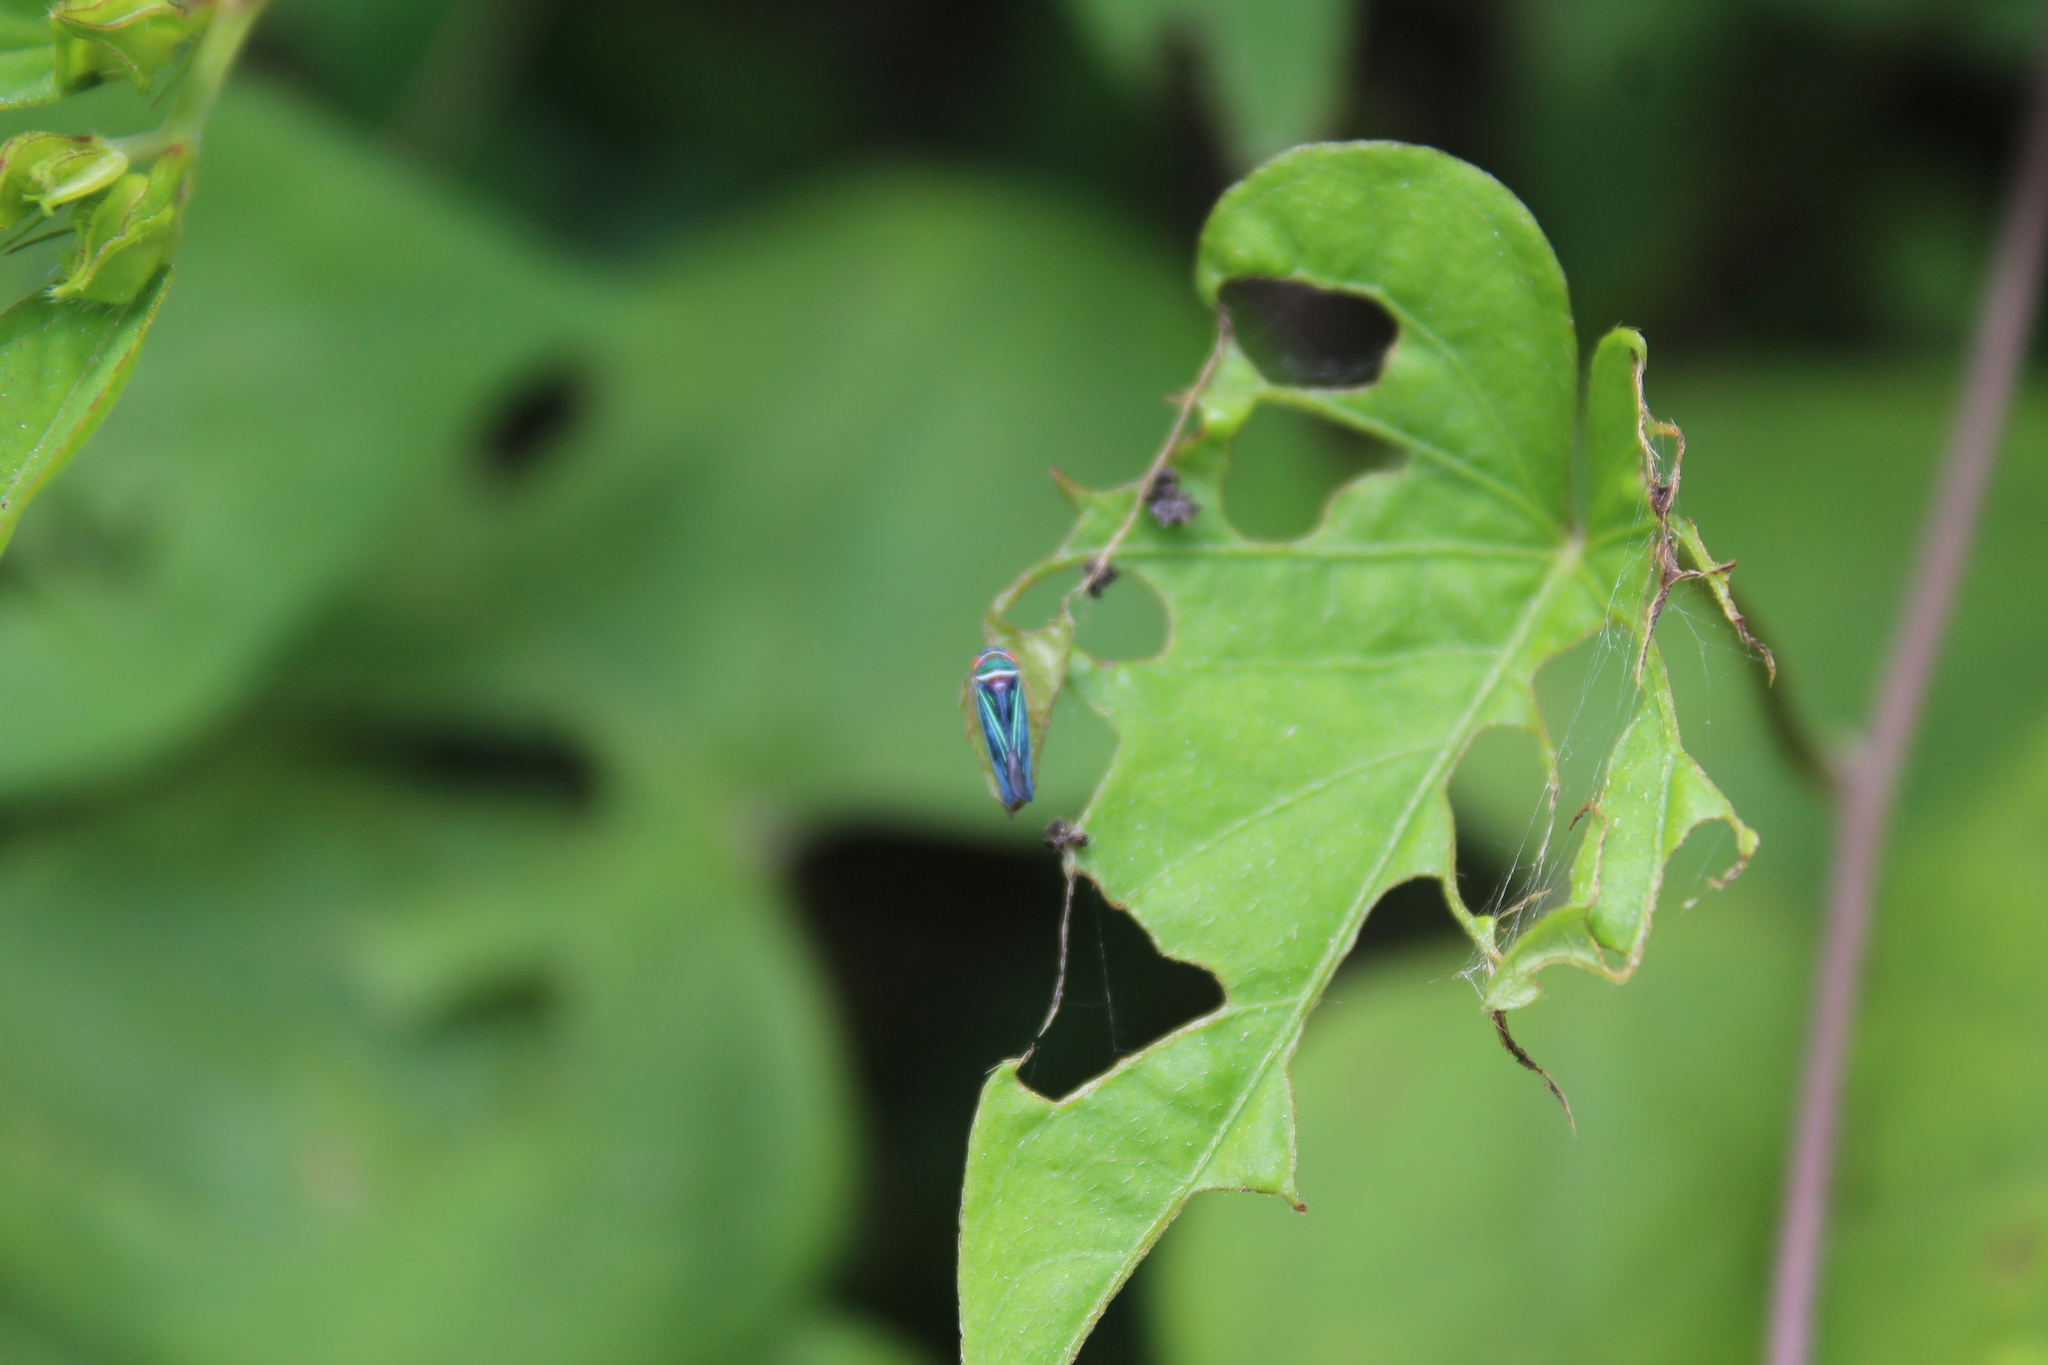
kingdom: Animalia
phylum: Arthropoda
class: Insecta
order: Hemiptera
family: Cicadellidae
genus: Tylozygus
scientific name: Tylozygus fuscolineellus
